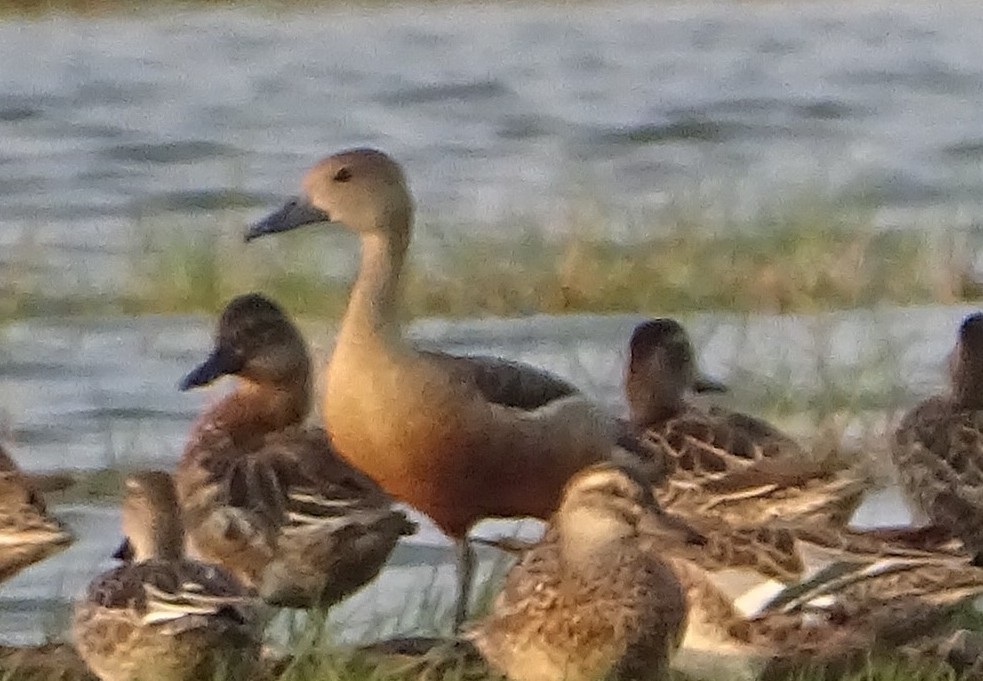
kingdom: Animalia
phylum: Chordata
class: Aves
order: Anseriformes
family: Anatidae
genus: Dendrocygna
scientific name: Dendrocygna javanica
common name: Lesser whistling-duck
